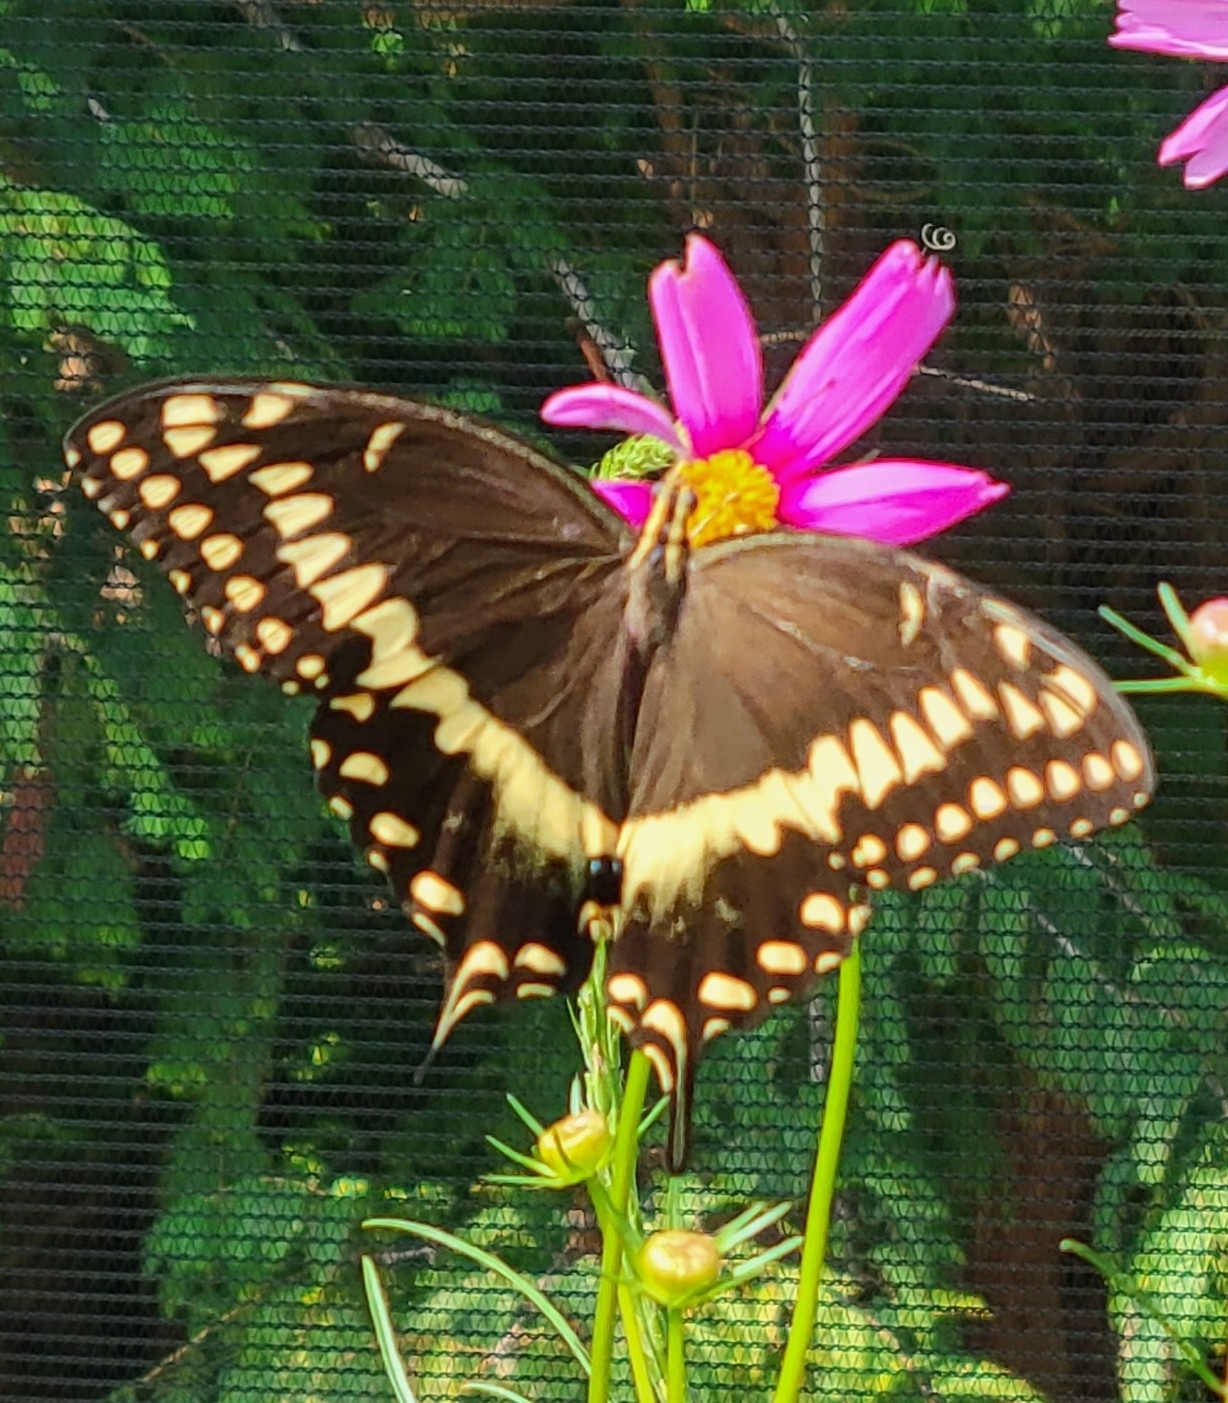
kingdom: Animalia
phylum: Arthropoda
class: Insecta
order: Lepidoptera
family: Papilionidae
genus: Papilio
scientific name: Papilio palamedes
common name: Palamedes swallowtail
